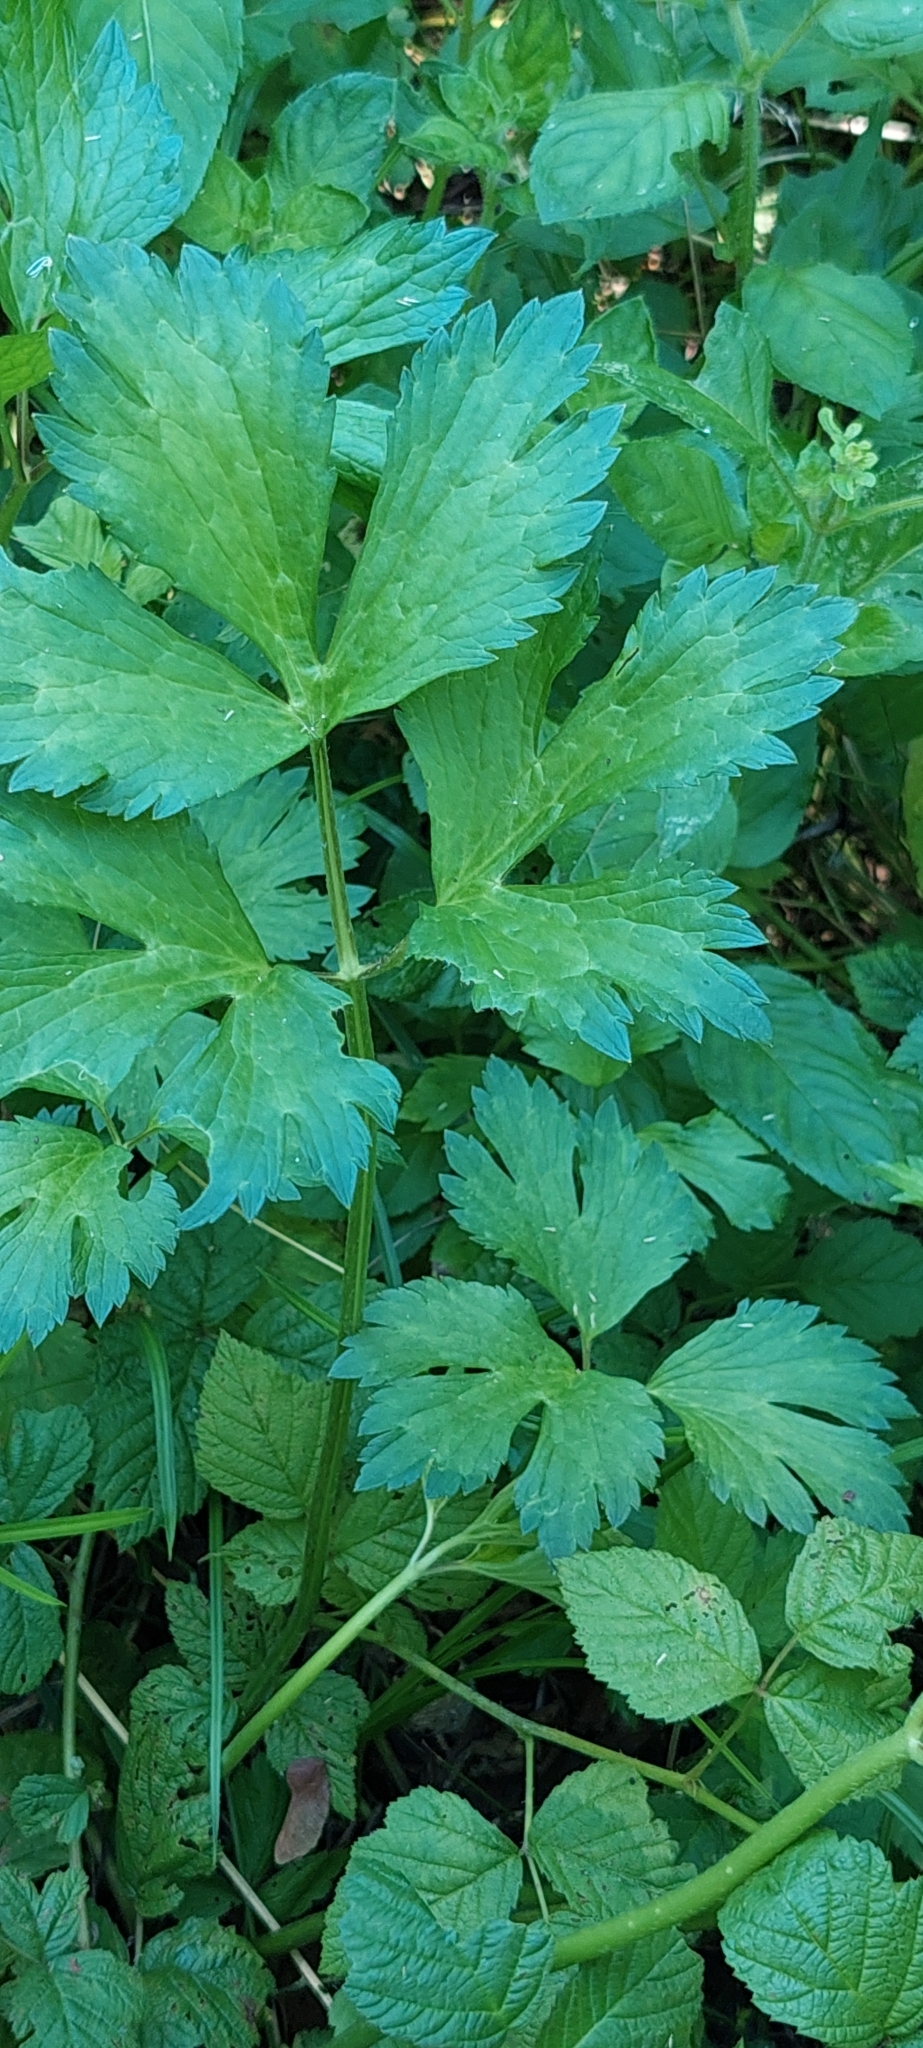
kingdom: Plantae
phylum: Tracheophyta
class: Magnoliopsida
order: Ranunculales
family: Ranunculaceae
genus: Ranunculus
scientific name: Ranunculus repens
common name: Creeping buttercup
